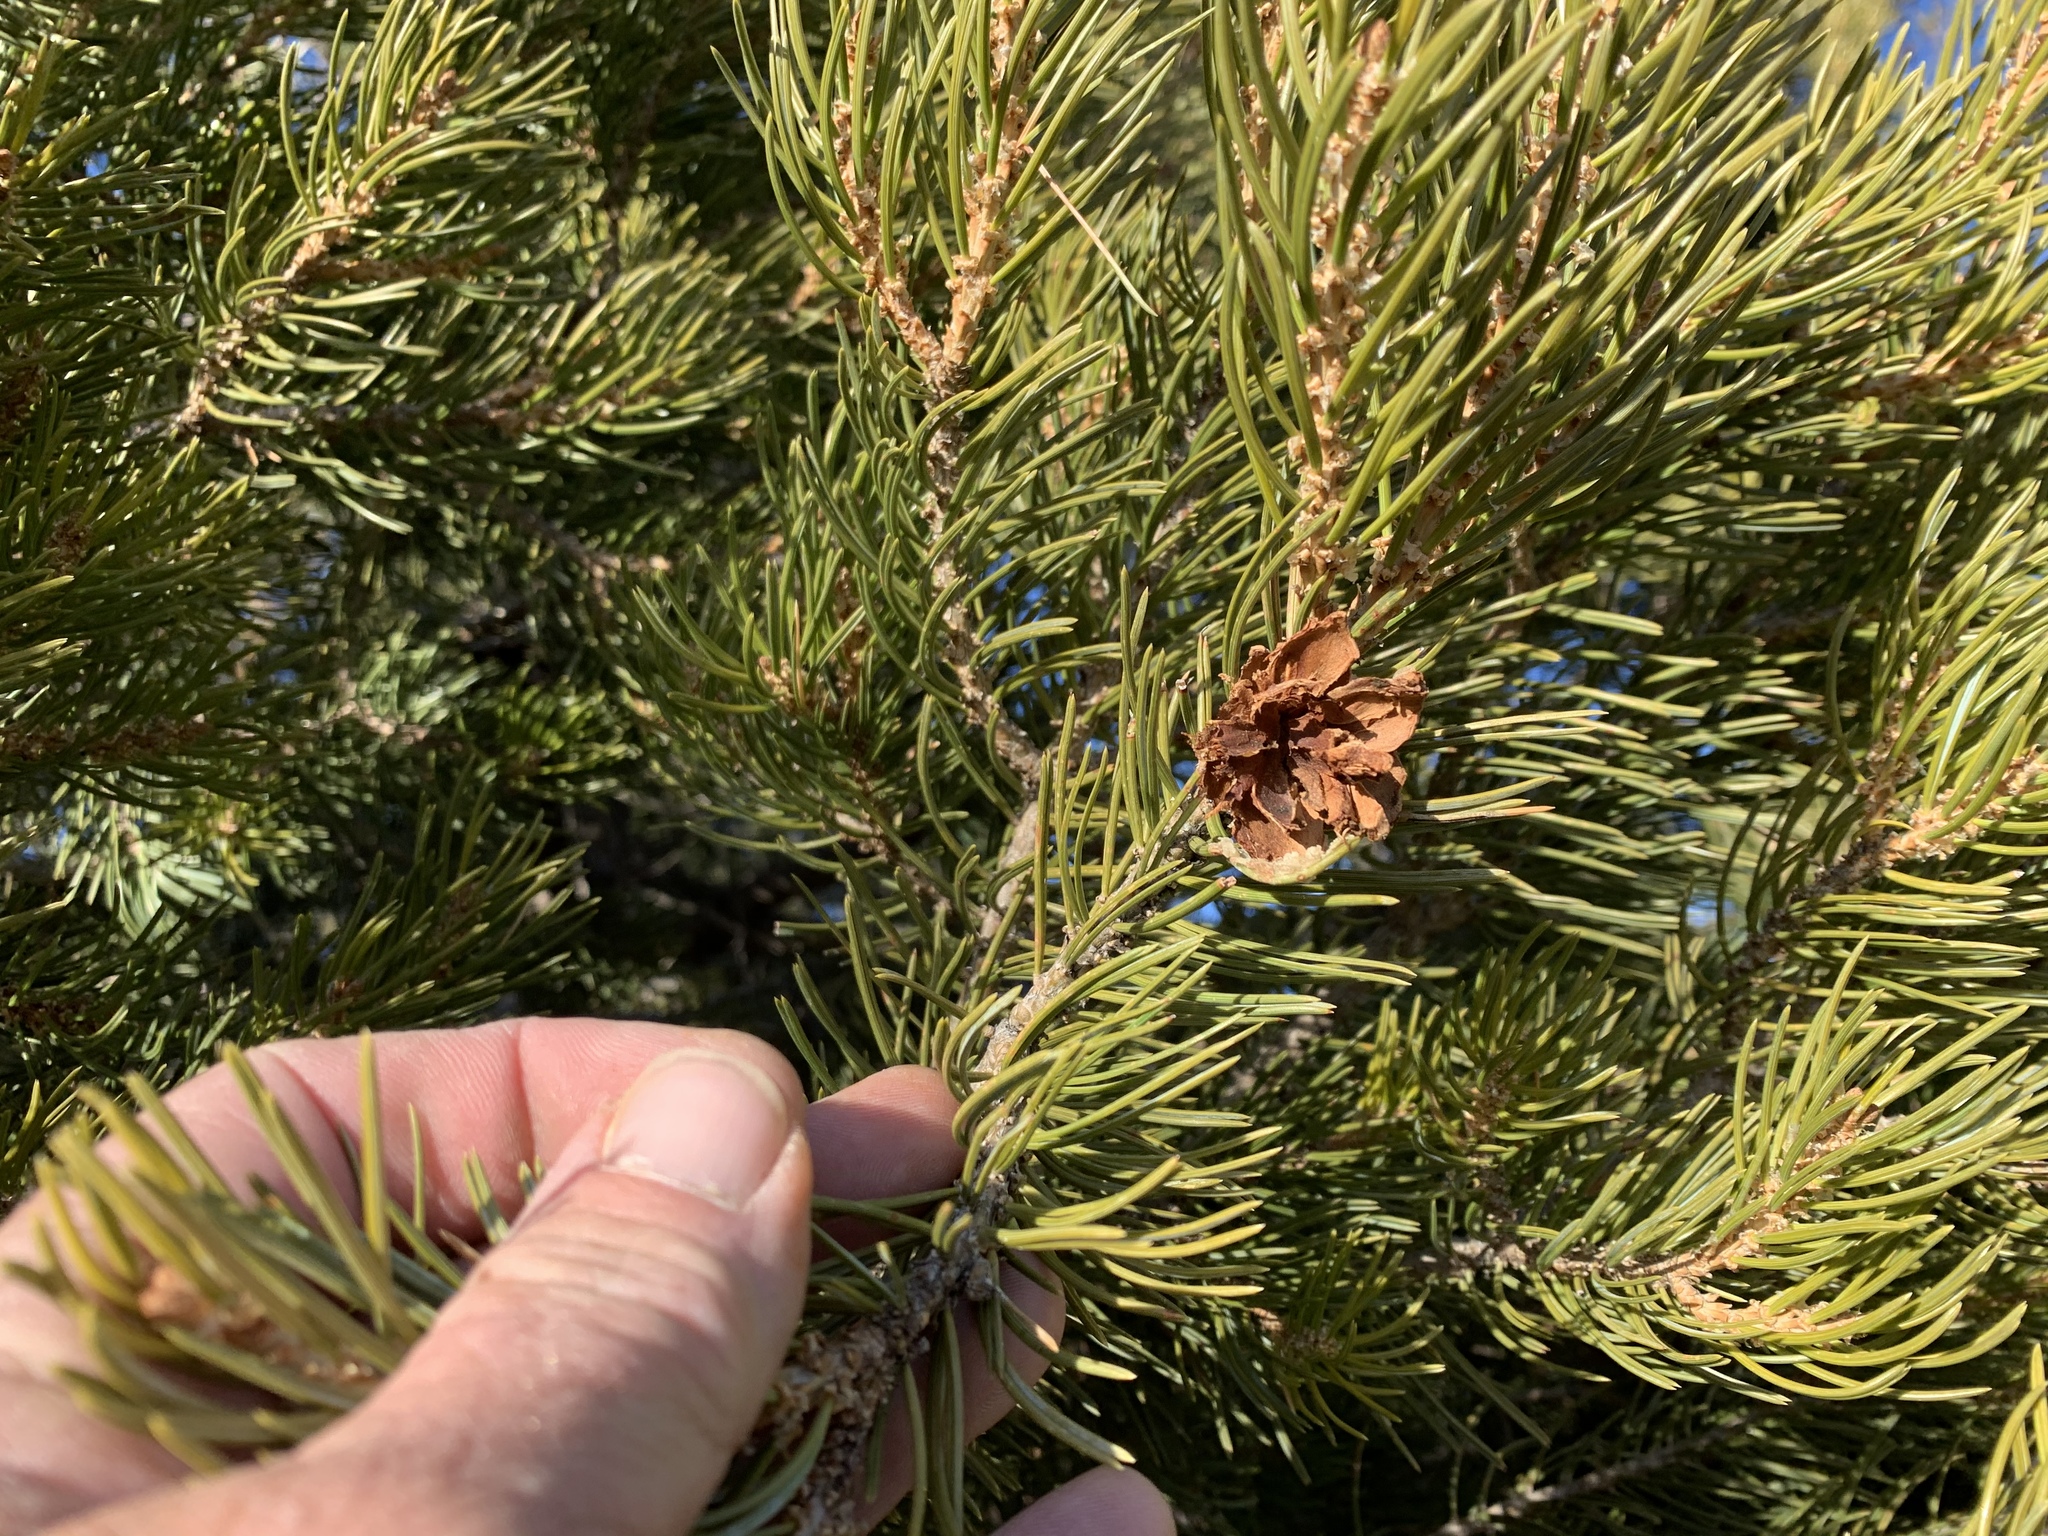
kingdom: Plantae
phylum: Tracheophyta
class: Pinopsida
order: Pinales
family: Pinaceae
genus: Pinus
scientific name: Pinus edulis
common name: Colorado pinyon
